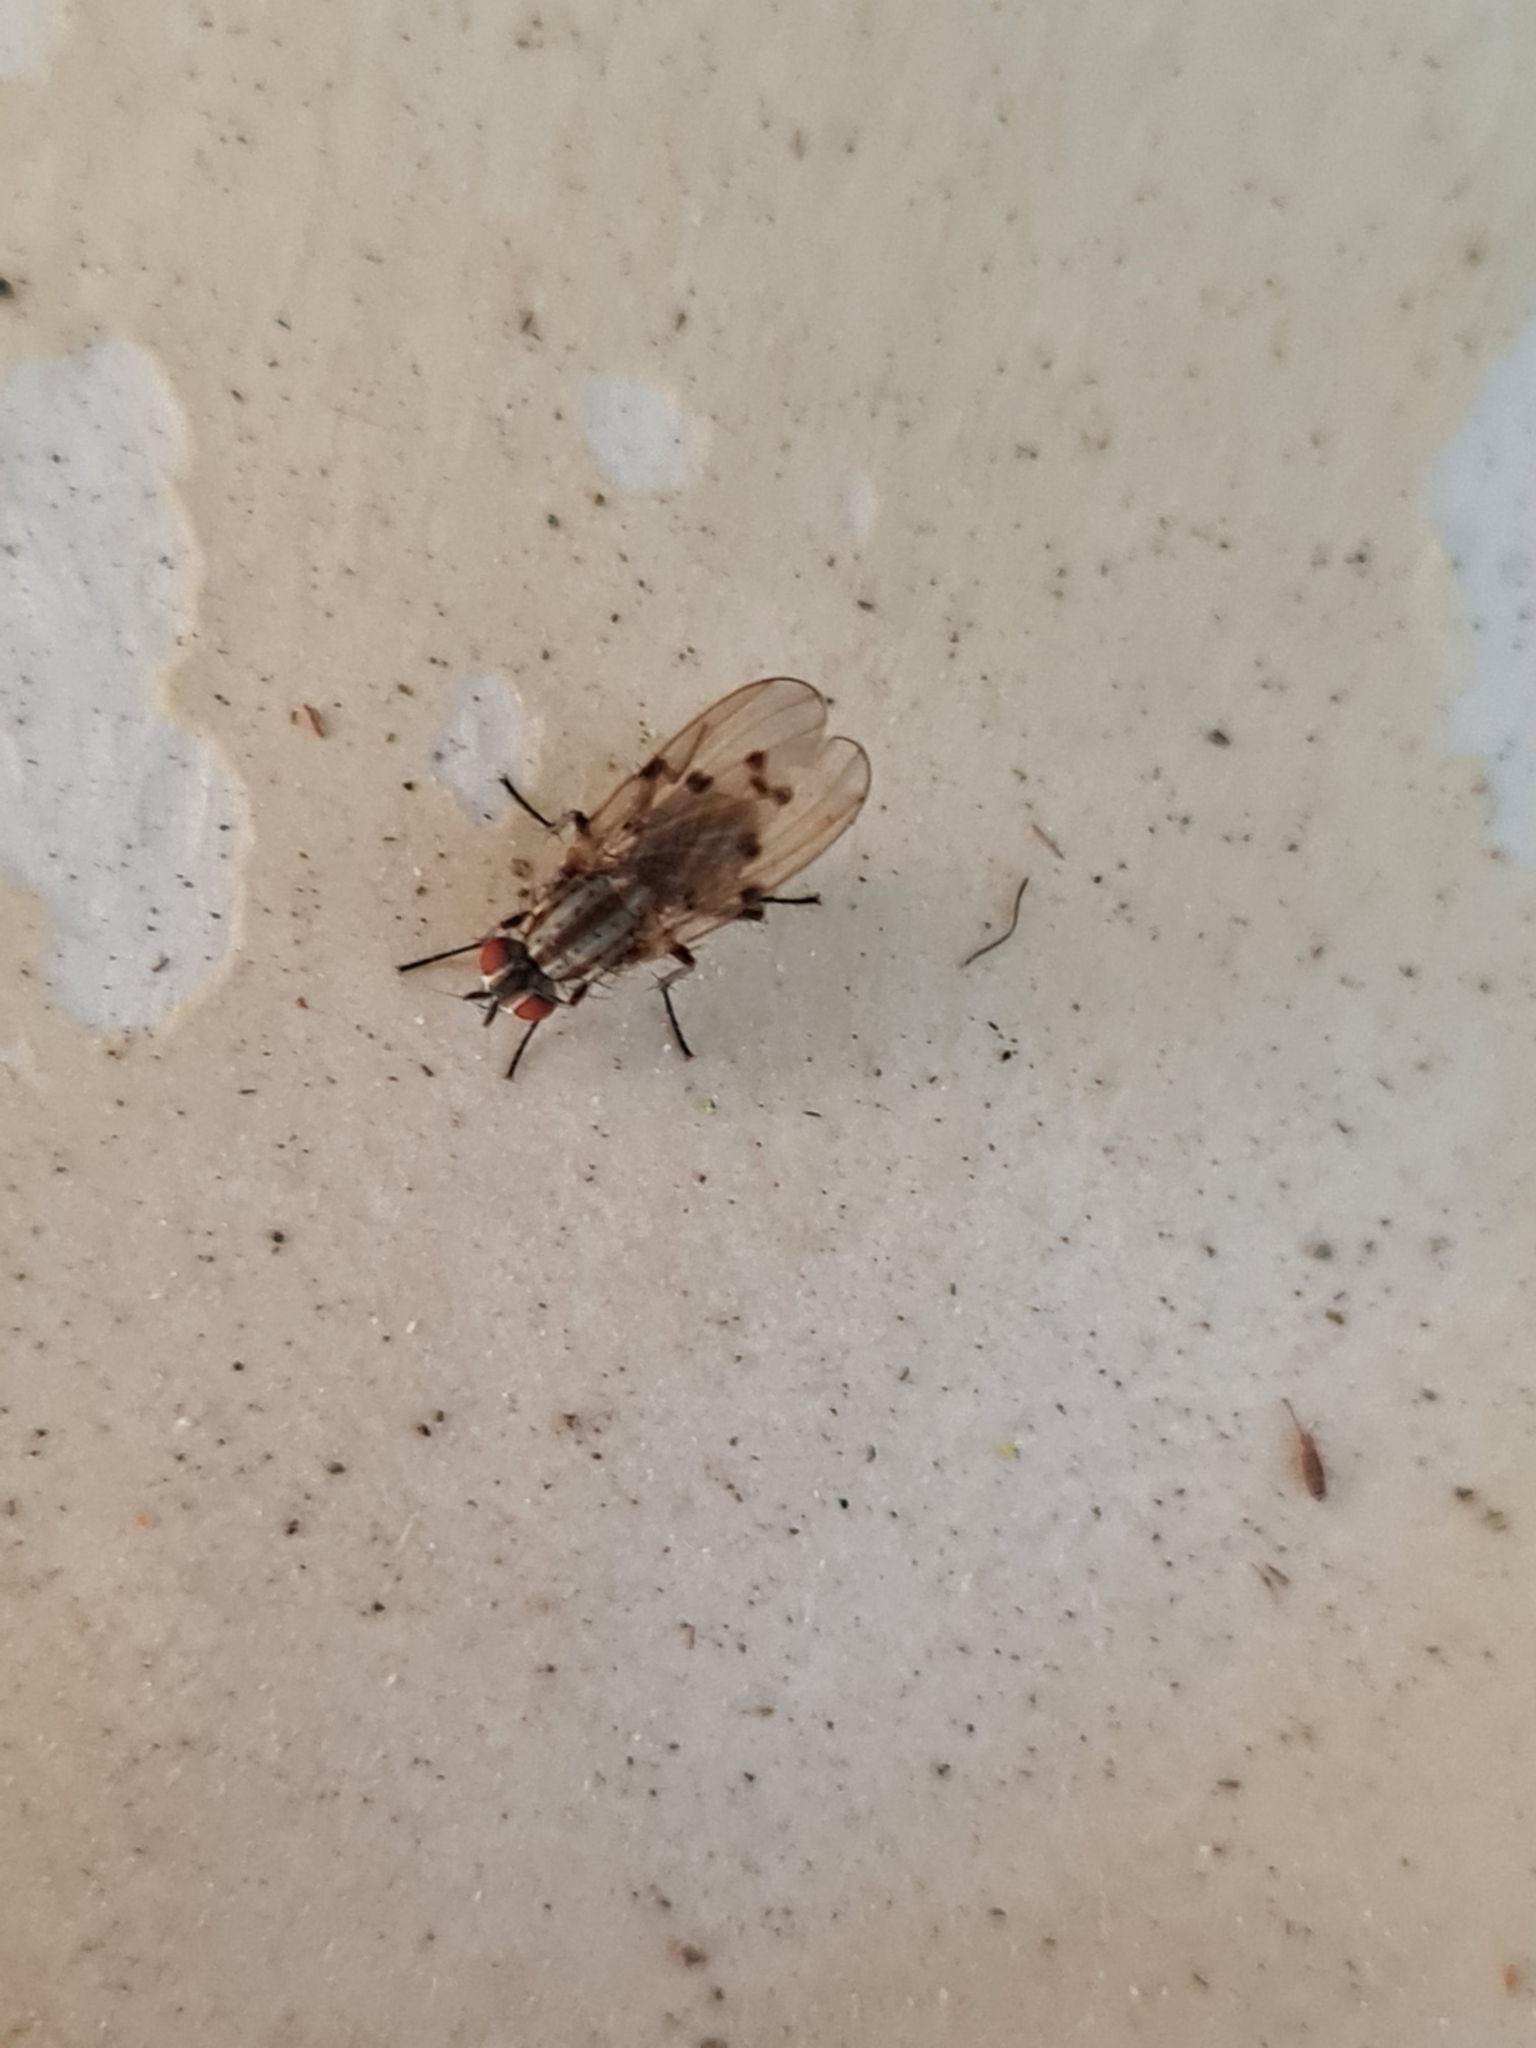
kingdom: Animalia
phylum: Arthropoda
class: Insecta
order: Diptera
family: Anthomyiidae
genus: Anthomyia
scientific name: Anthomyia punctipennis
